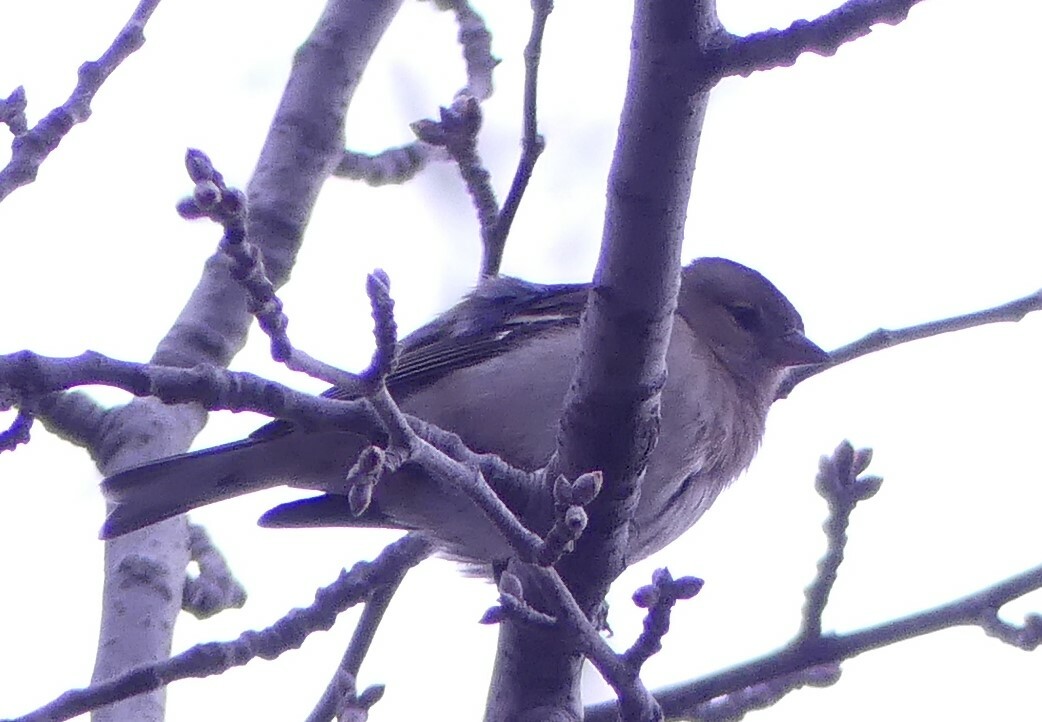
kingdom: Animalia
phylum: Chordata
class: Aves
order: Passeriformes
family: Fringillidae
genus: Fringilla
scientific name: Fringilla coelebs
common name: Common chaffinch
